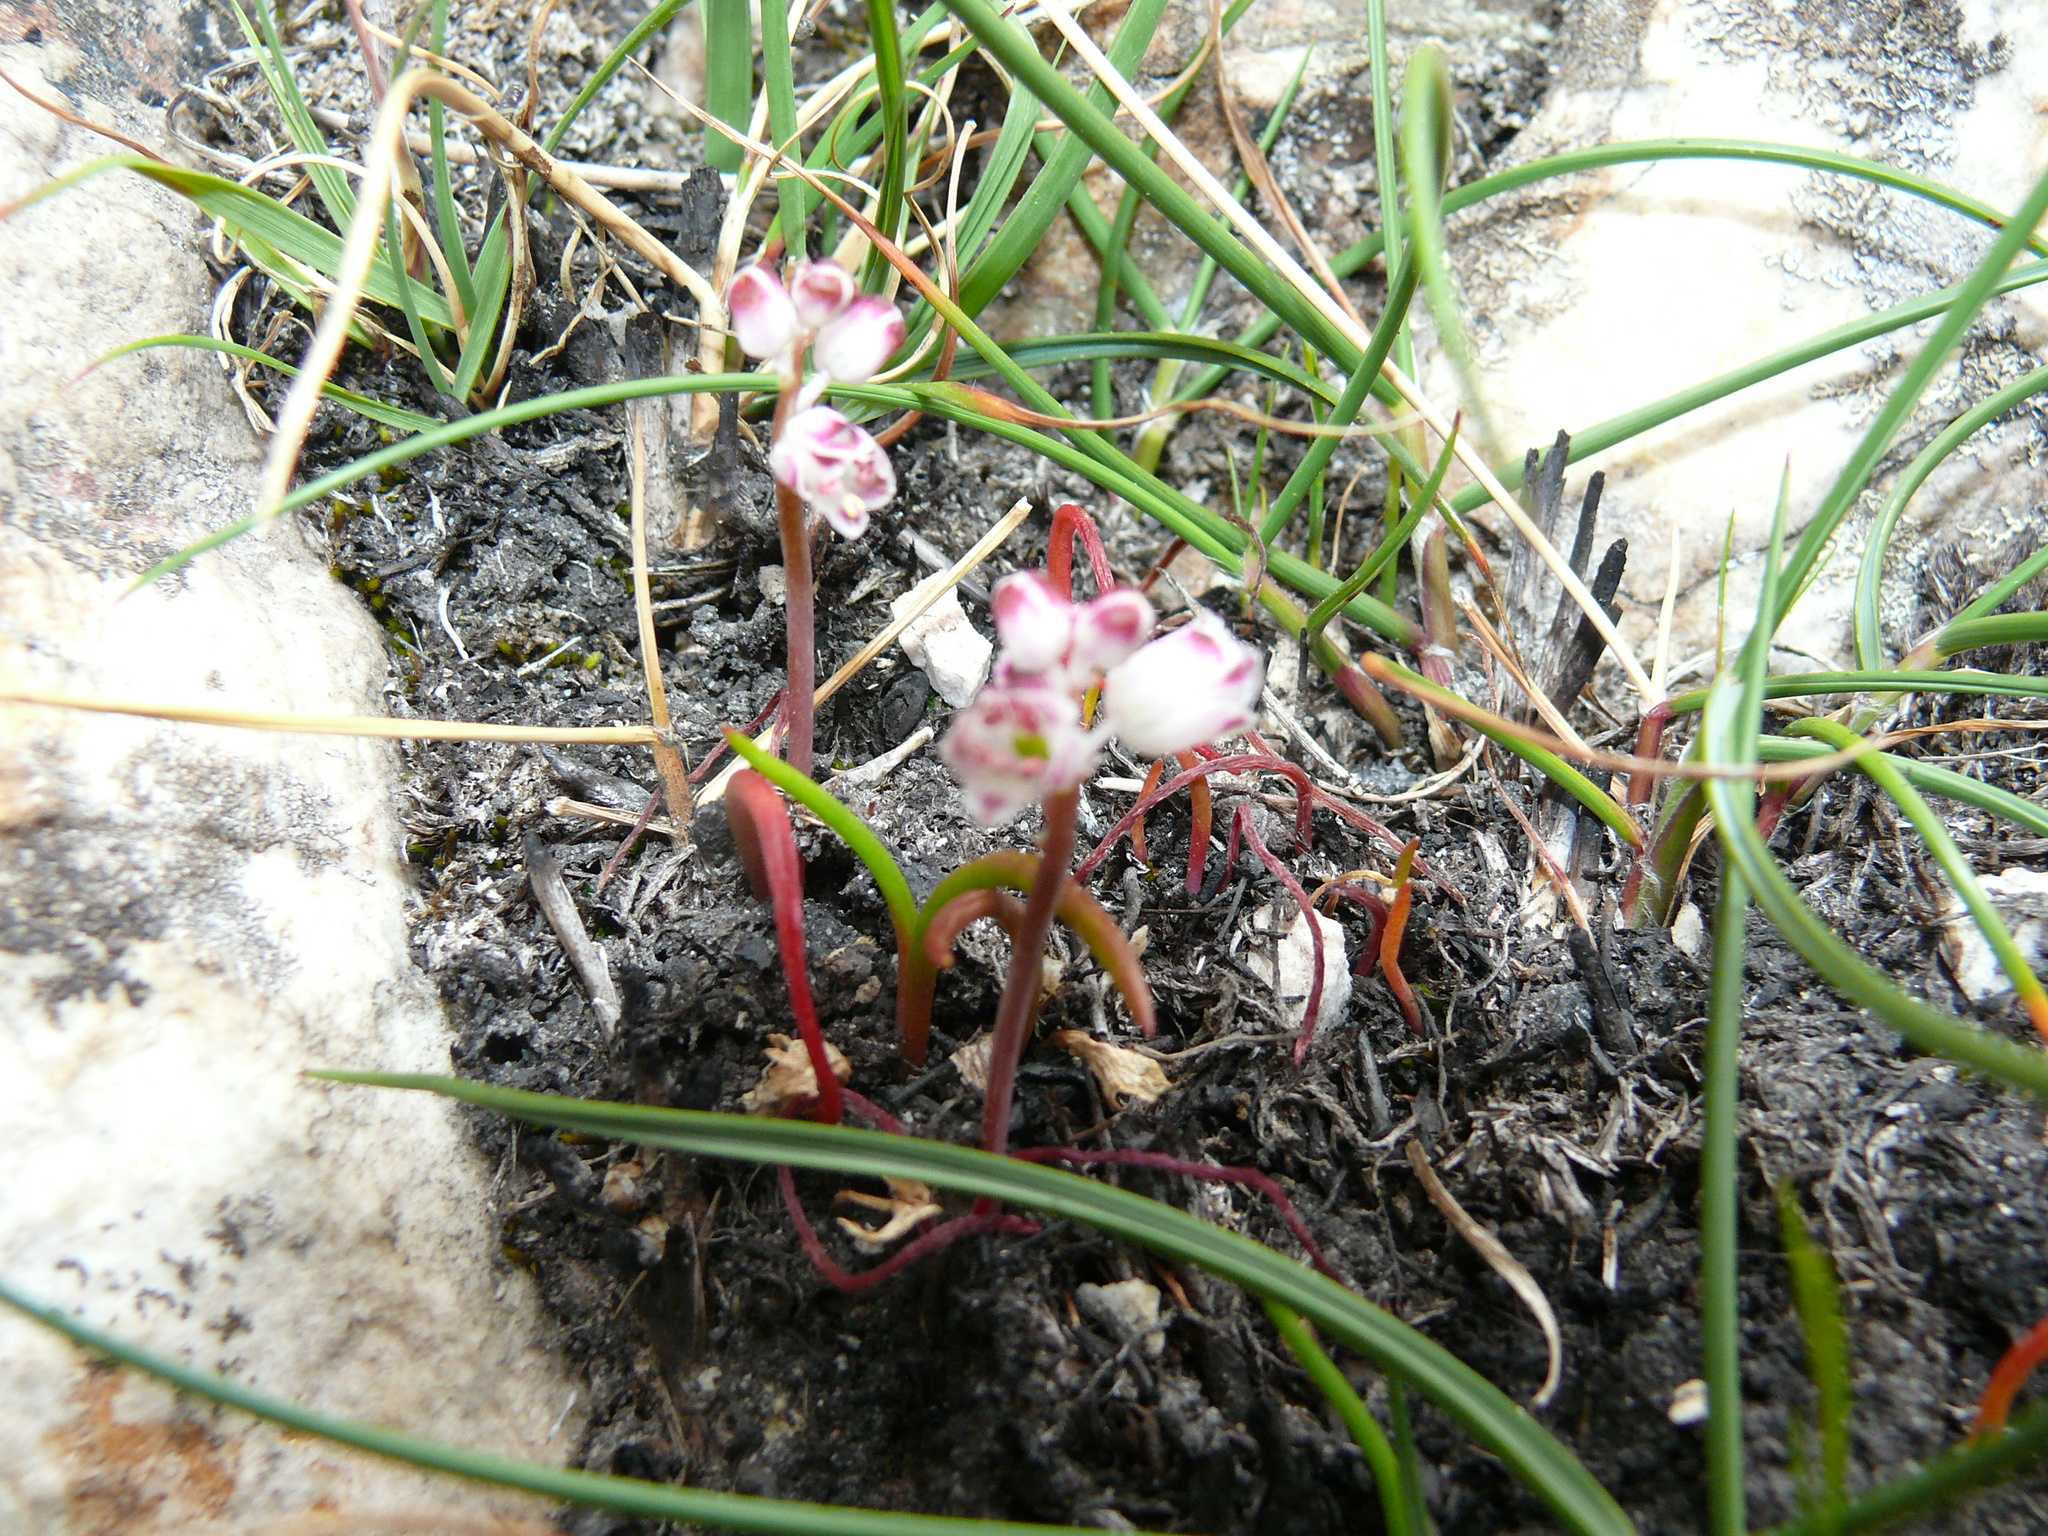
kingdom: Plantae
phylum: Tracheophyta
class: Liliopsida
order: Asparagales
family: Asparagaceae
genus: Lachenalia
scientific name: Lachenalia juncifolia
